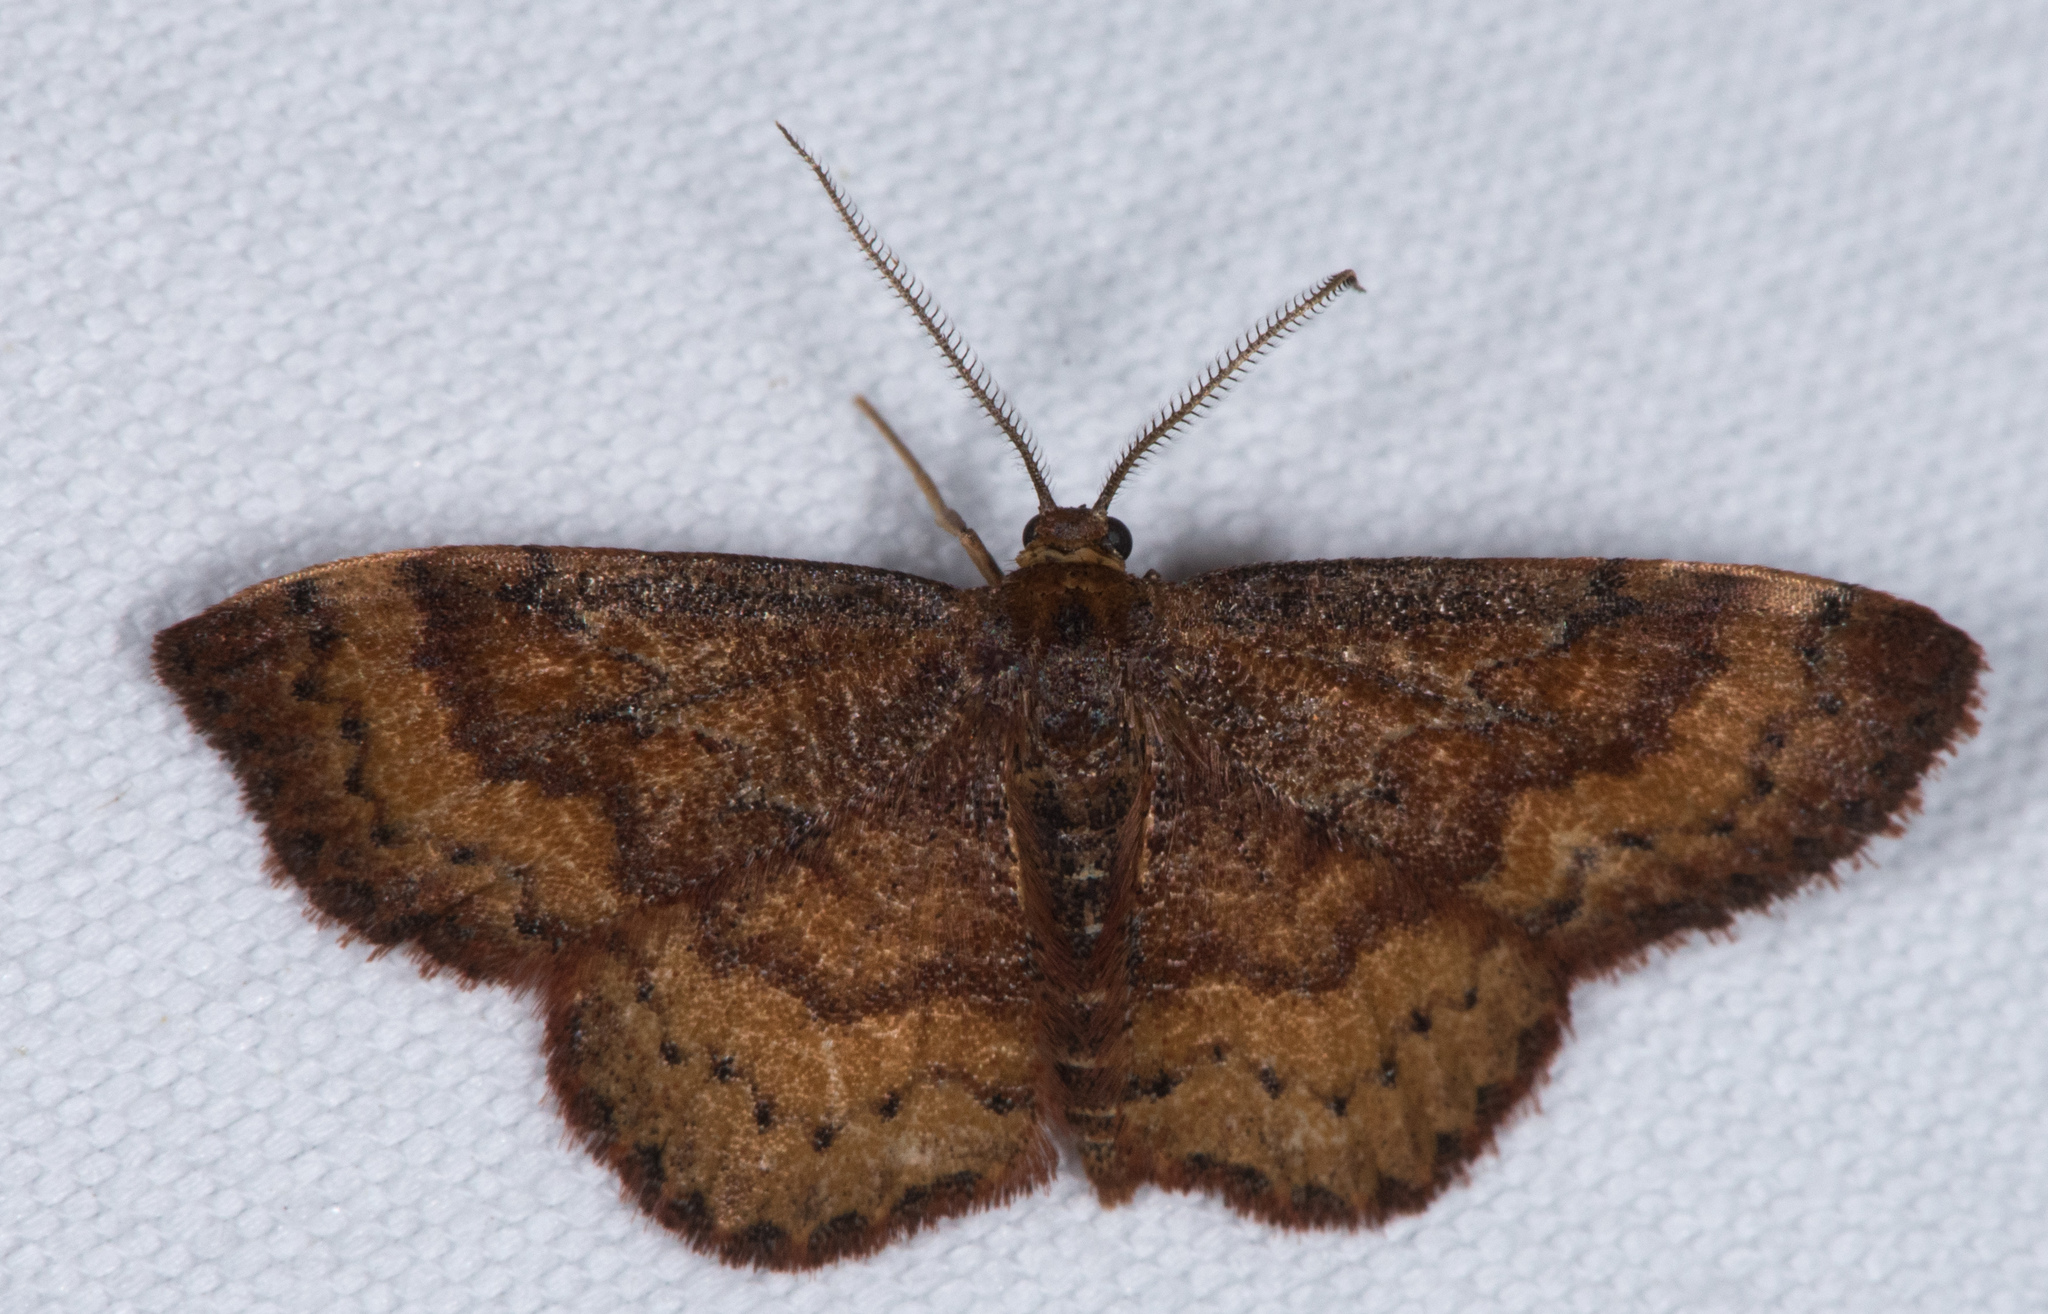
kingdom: Animalia
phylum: Arthropoda
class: Insecta
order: Lepidoptera
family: Geometridae
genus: Leptostales
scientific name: Leptostales rubromarginaria
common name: Dark-ribboned wave
